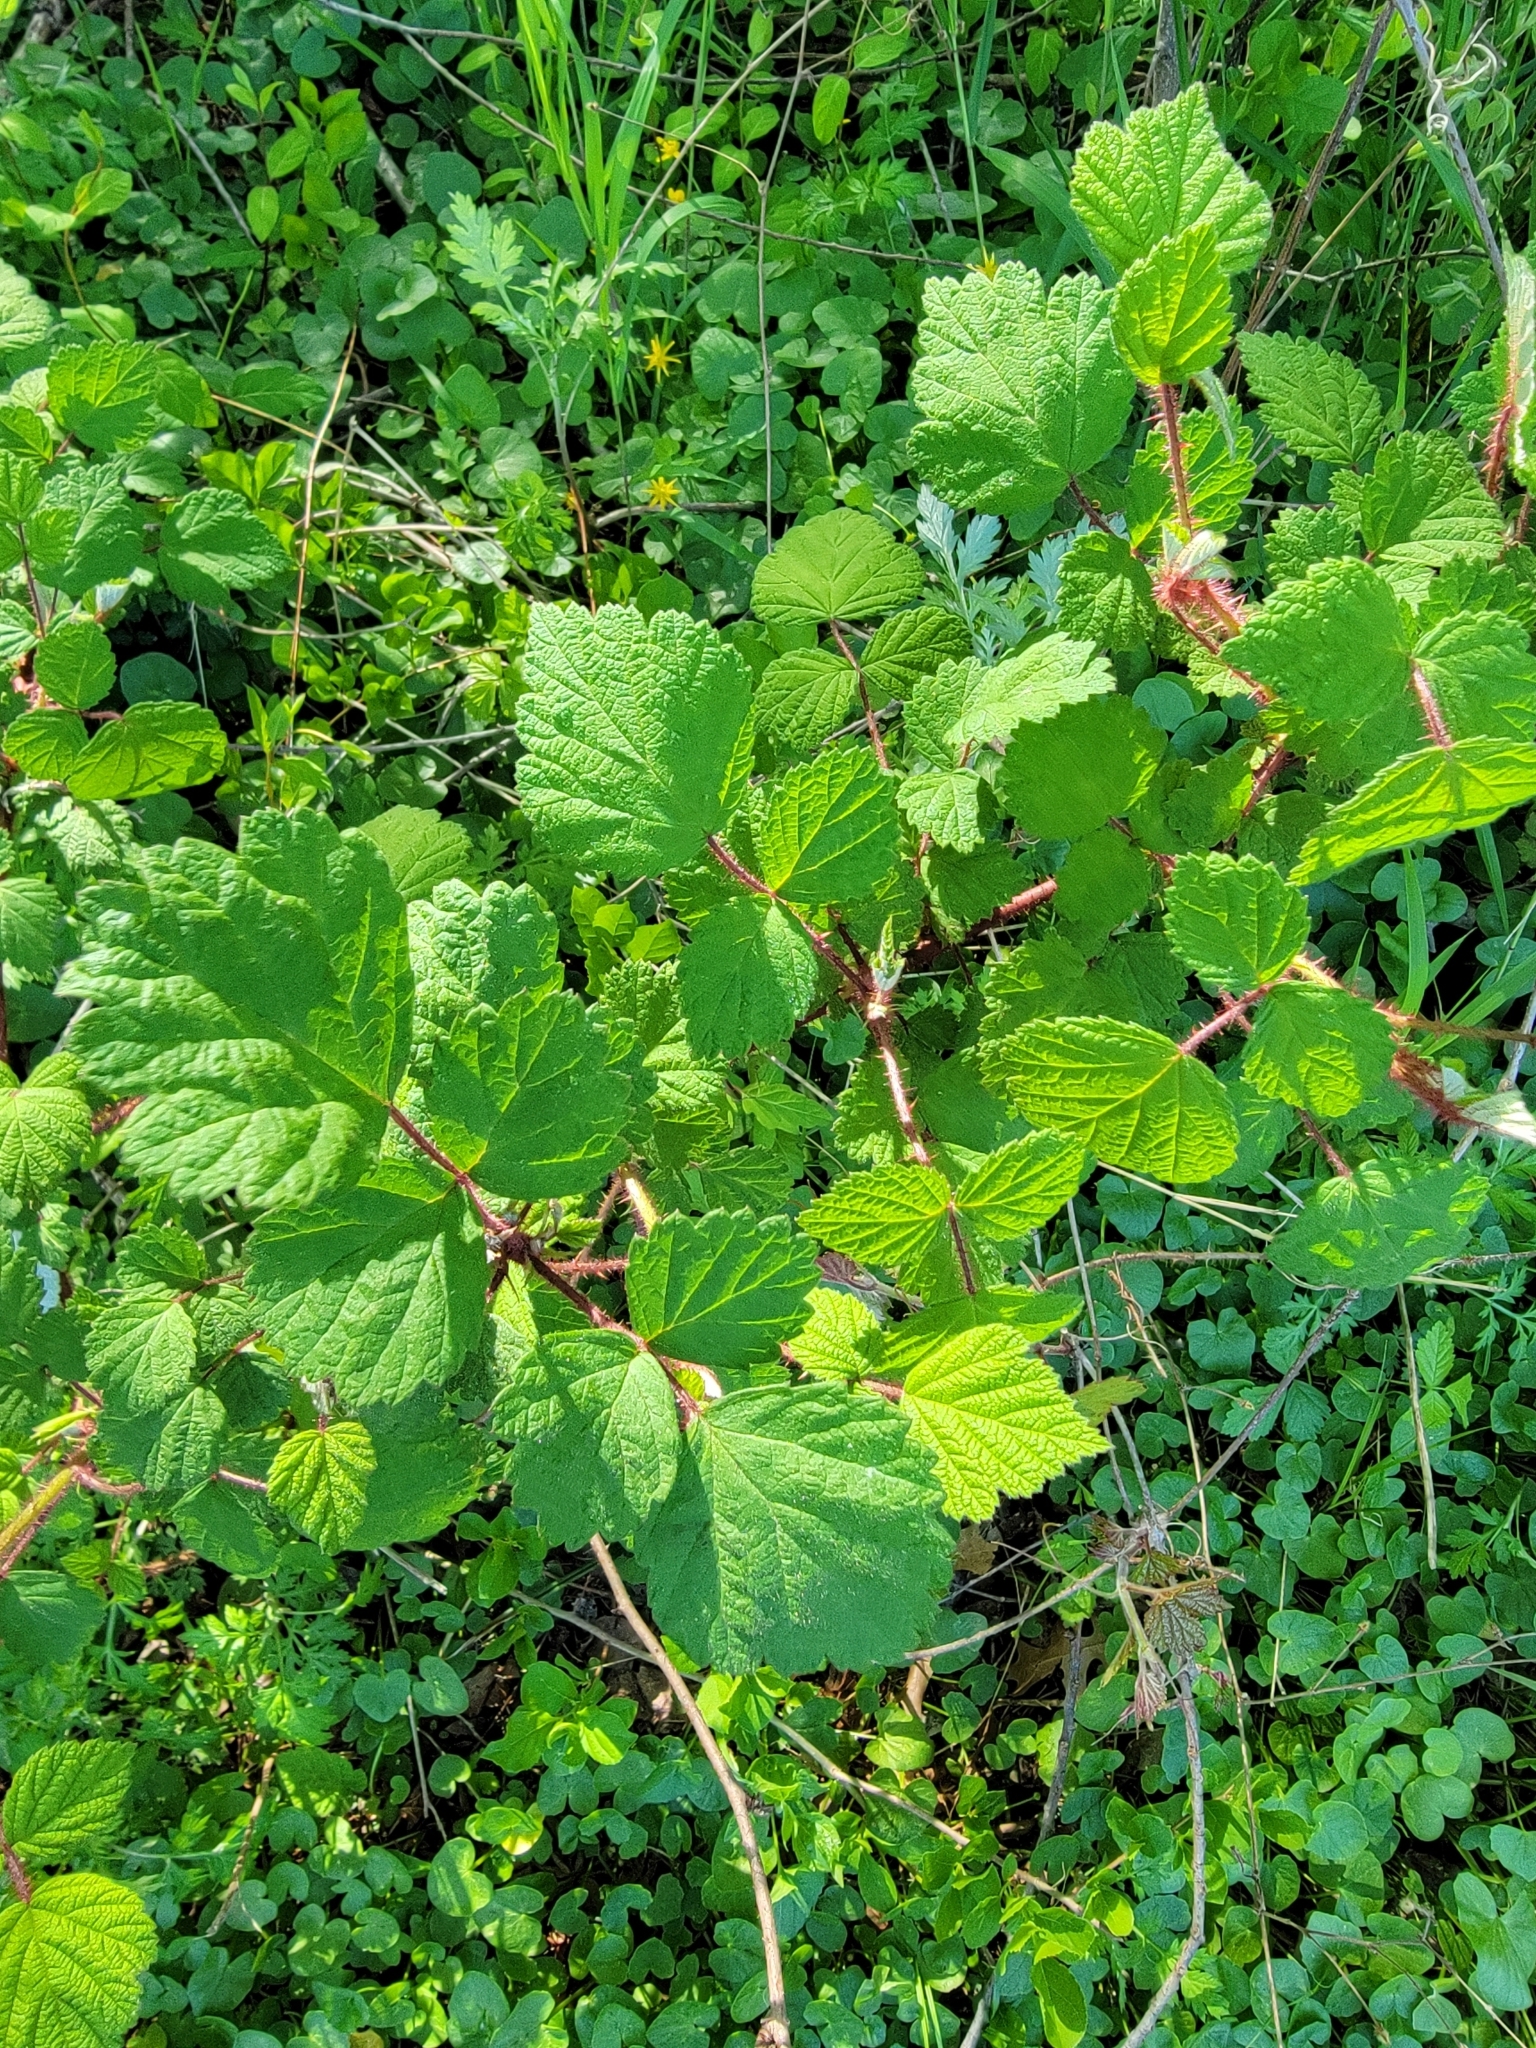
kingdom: Plantae
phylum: Tracheophyta
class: Magnoliopsida
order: Rosales
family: Rosaceae
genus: Rubus
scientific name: Rubus phoenicolasius
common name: Japanese wineberry
